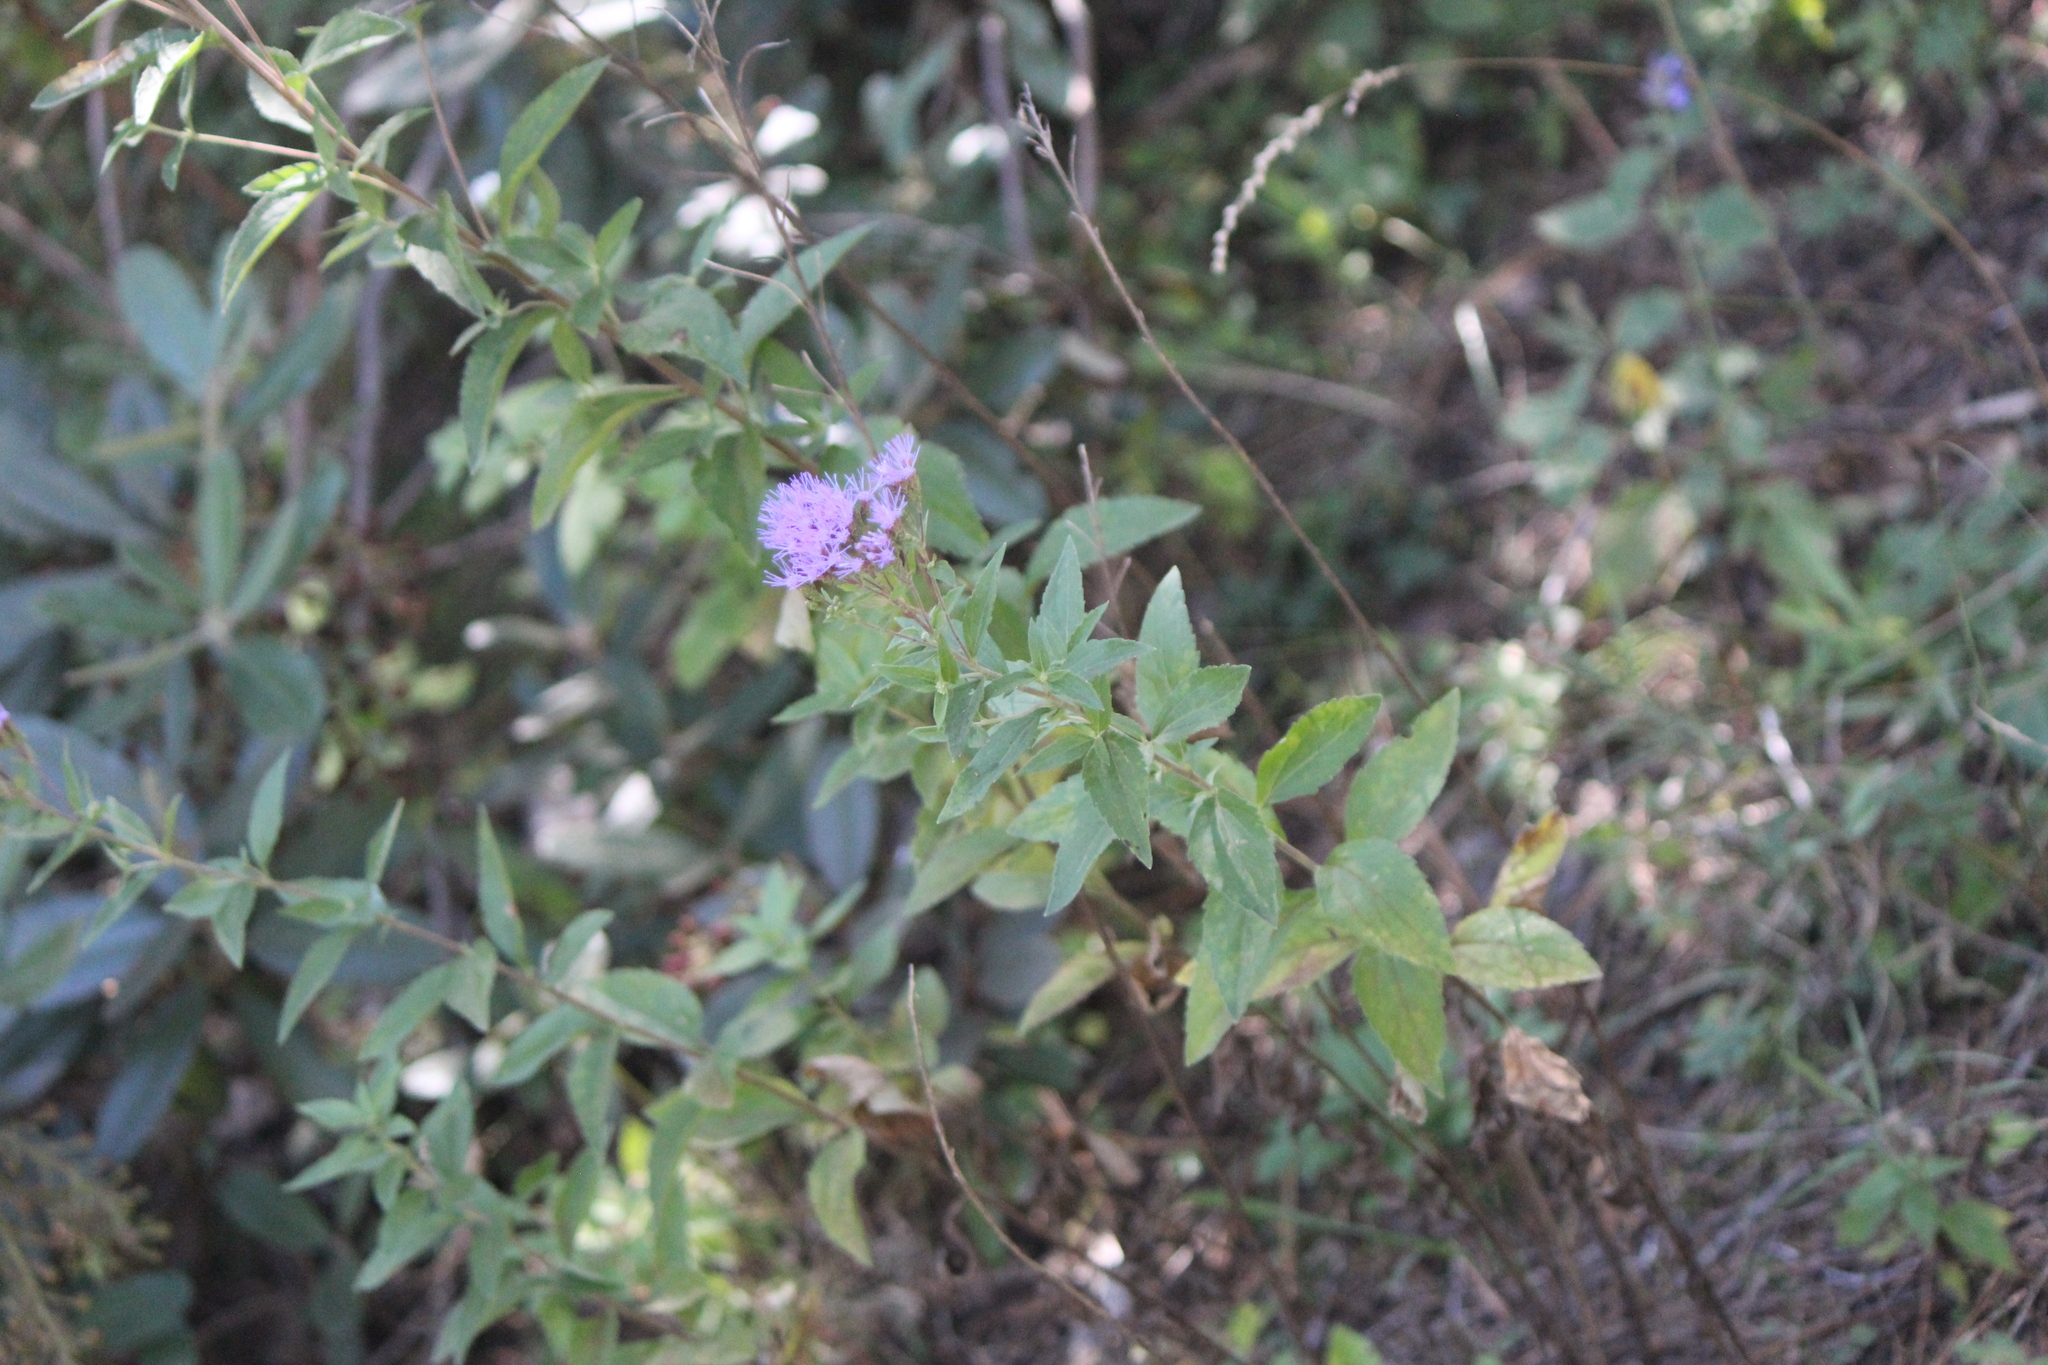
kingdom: Plantae
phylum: Tracheophyta
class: Magnoliopsida
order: Asterales
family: Asteraceae
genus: Chromolaena
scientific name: Chromolaena pulchella
